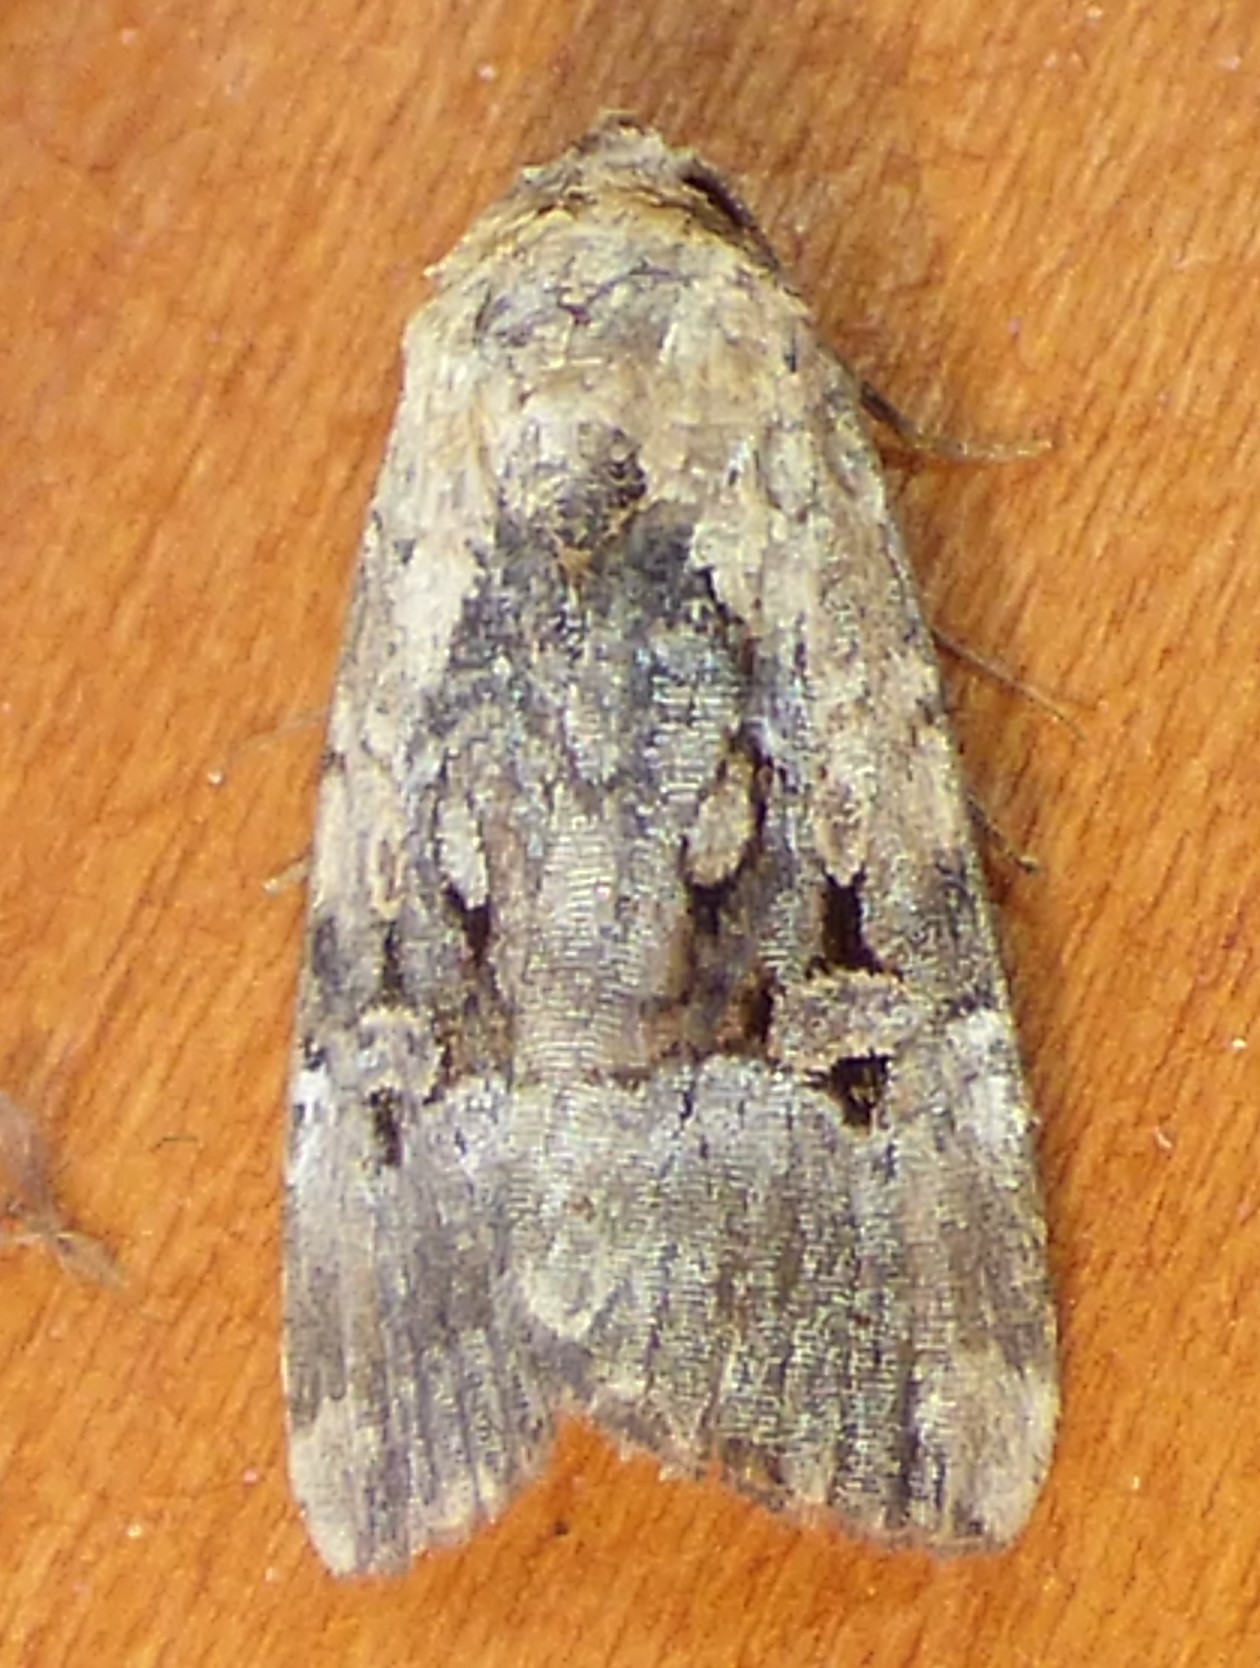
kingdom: Animalia
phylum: Arthropoda
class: Insecta
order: Lepidoptera
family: Noctuidae
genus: Elaphria
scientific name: Elaphria chalcedonia
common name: Chalcedony midget
